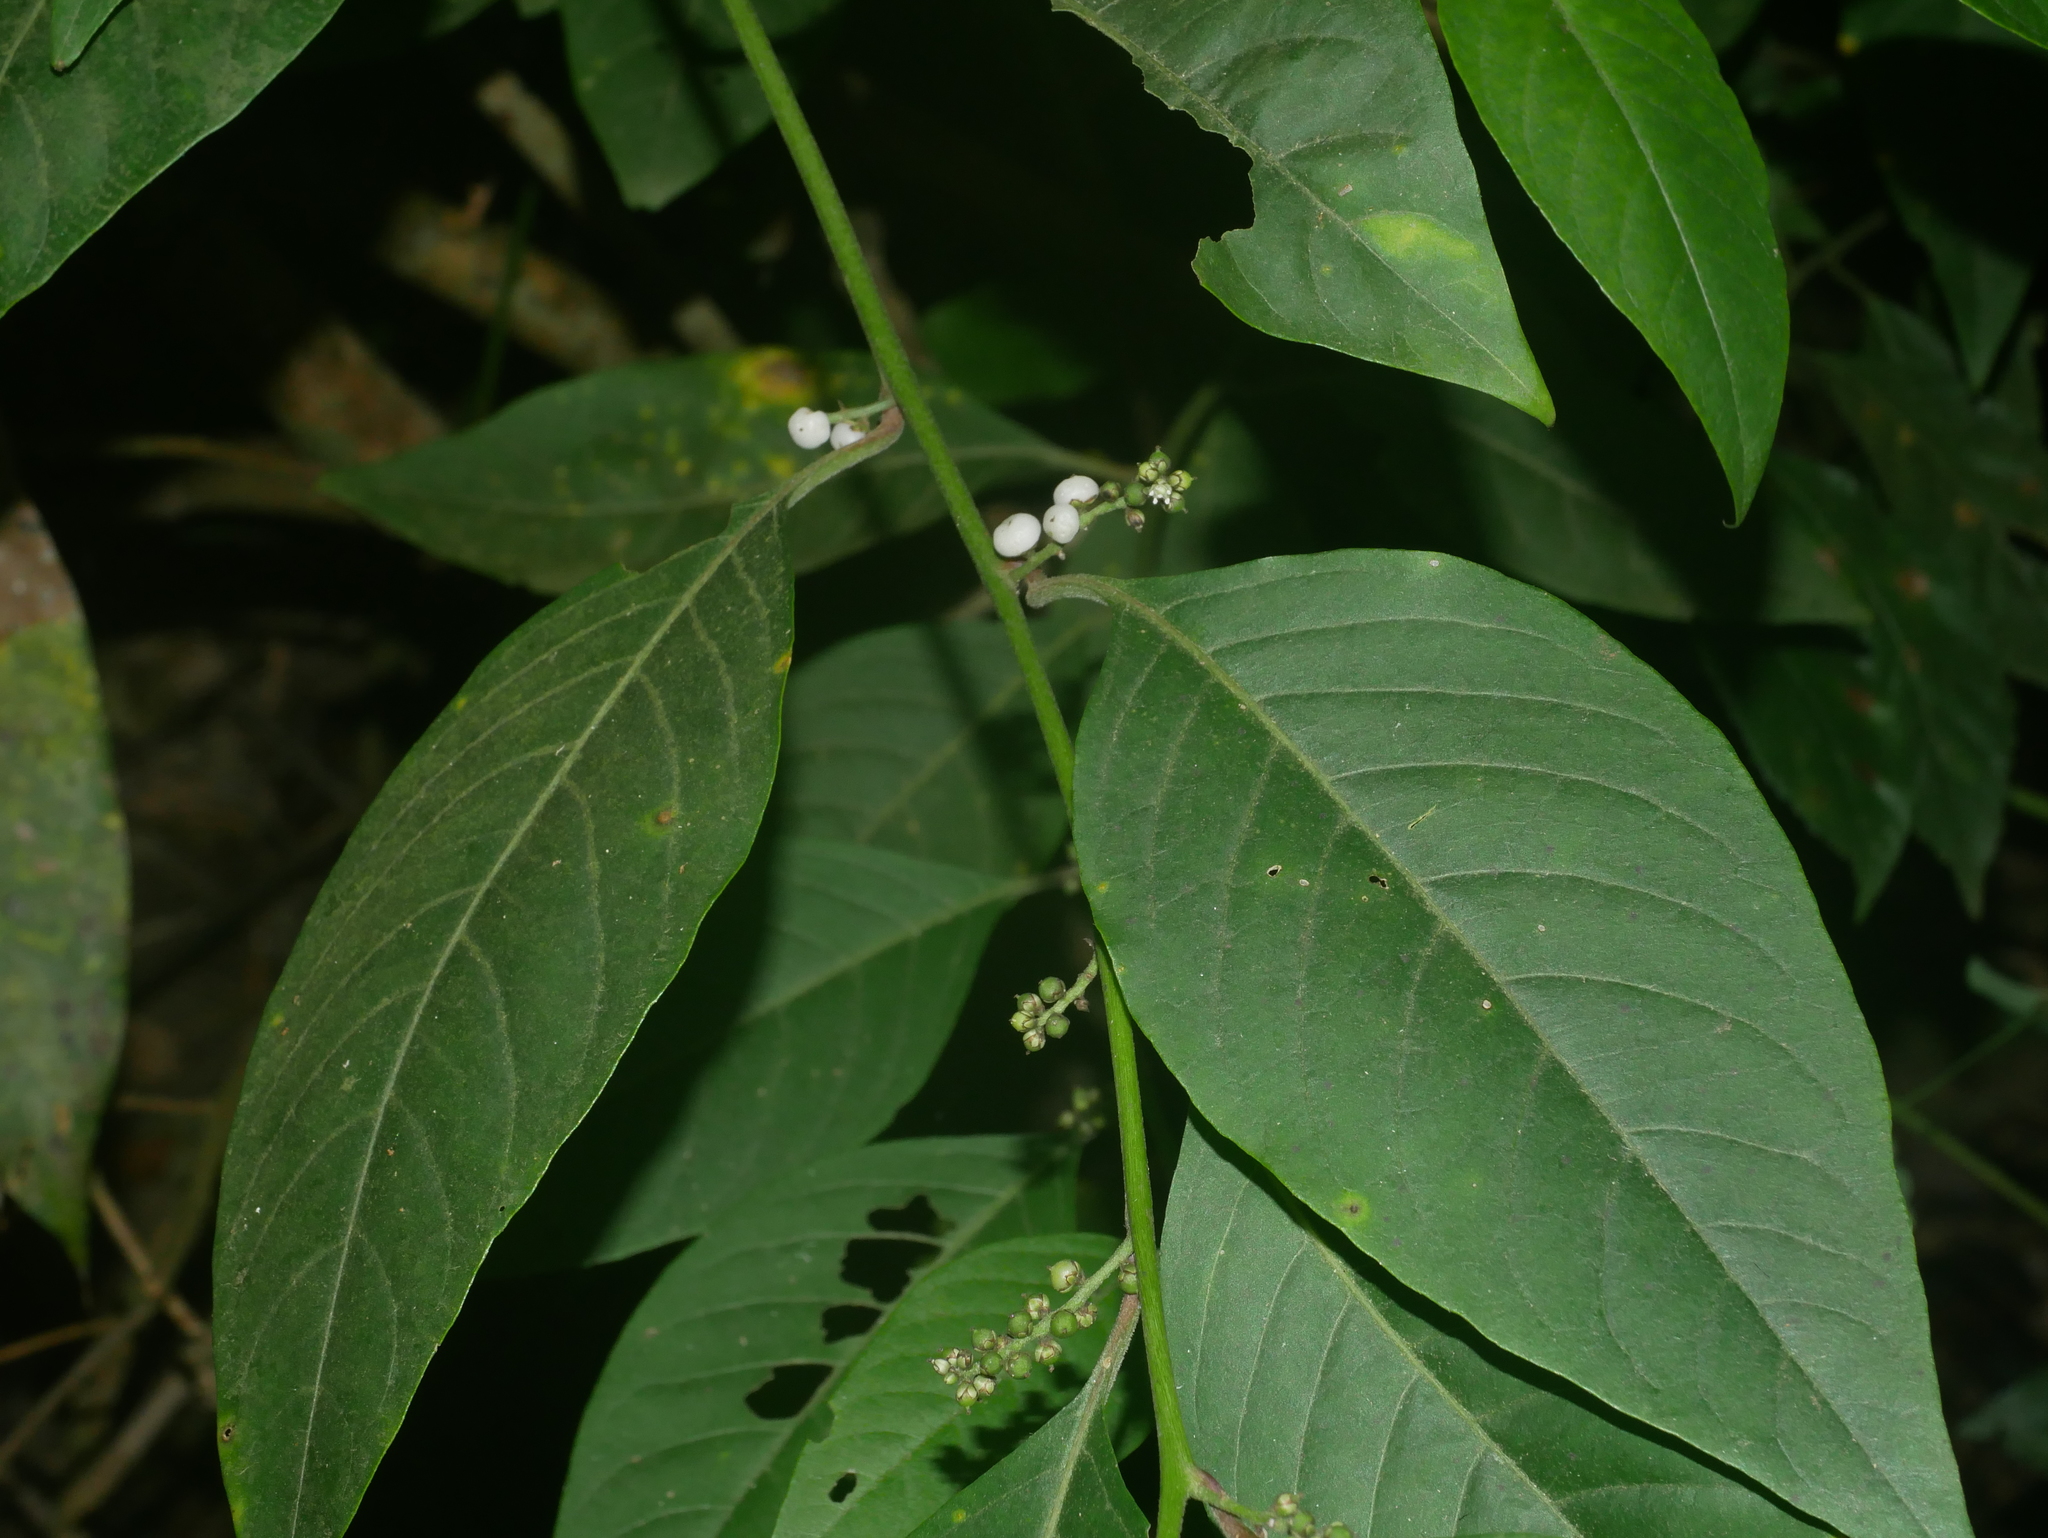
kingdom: Plantae
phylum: Tracheophyta
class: Magnoliopsida
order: Caryophyllales
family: Amaranthaceae
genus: Deeringia
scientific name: Deeringia polysperma
